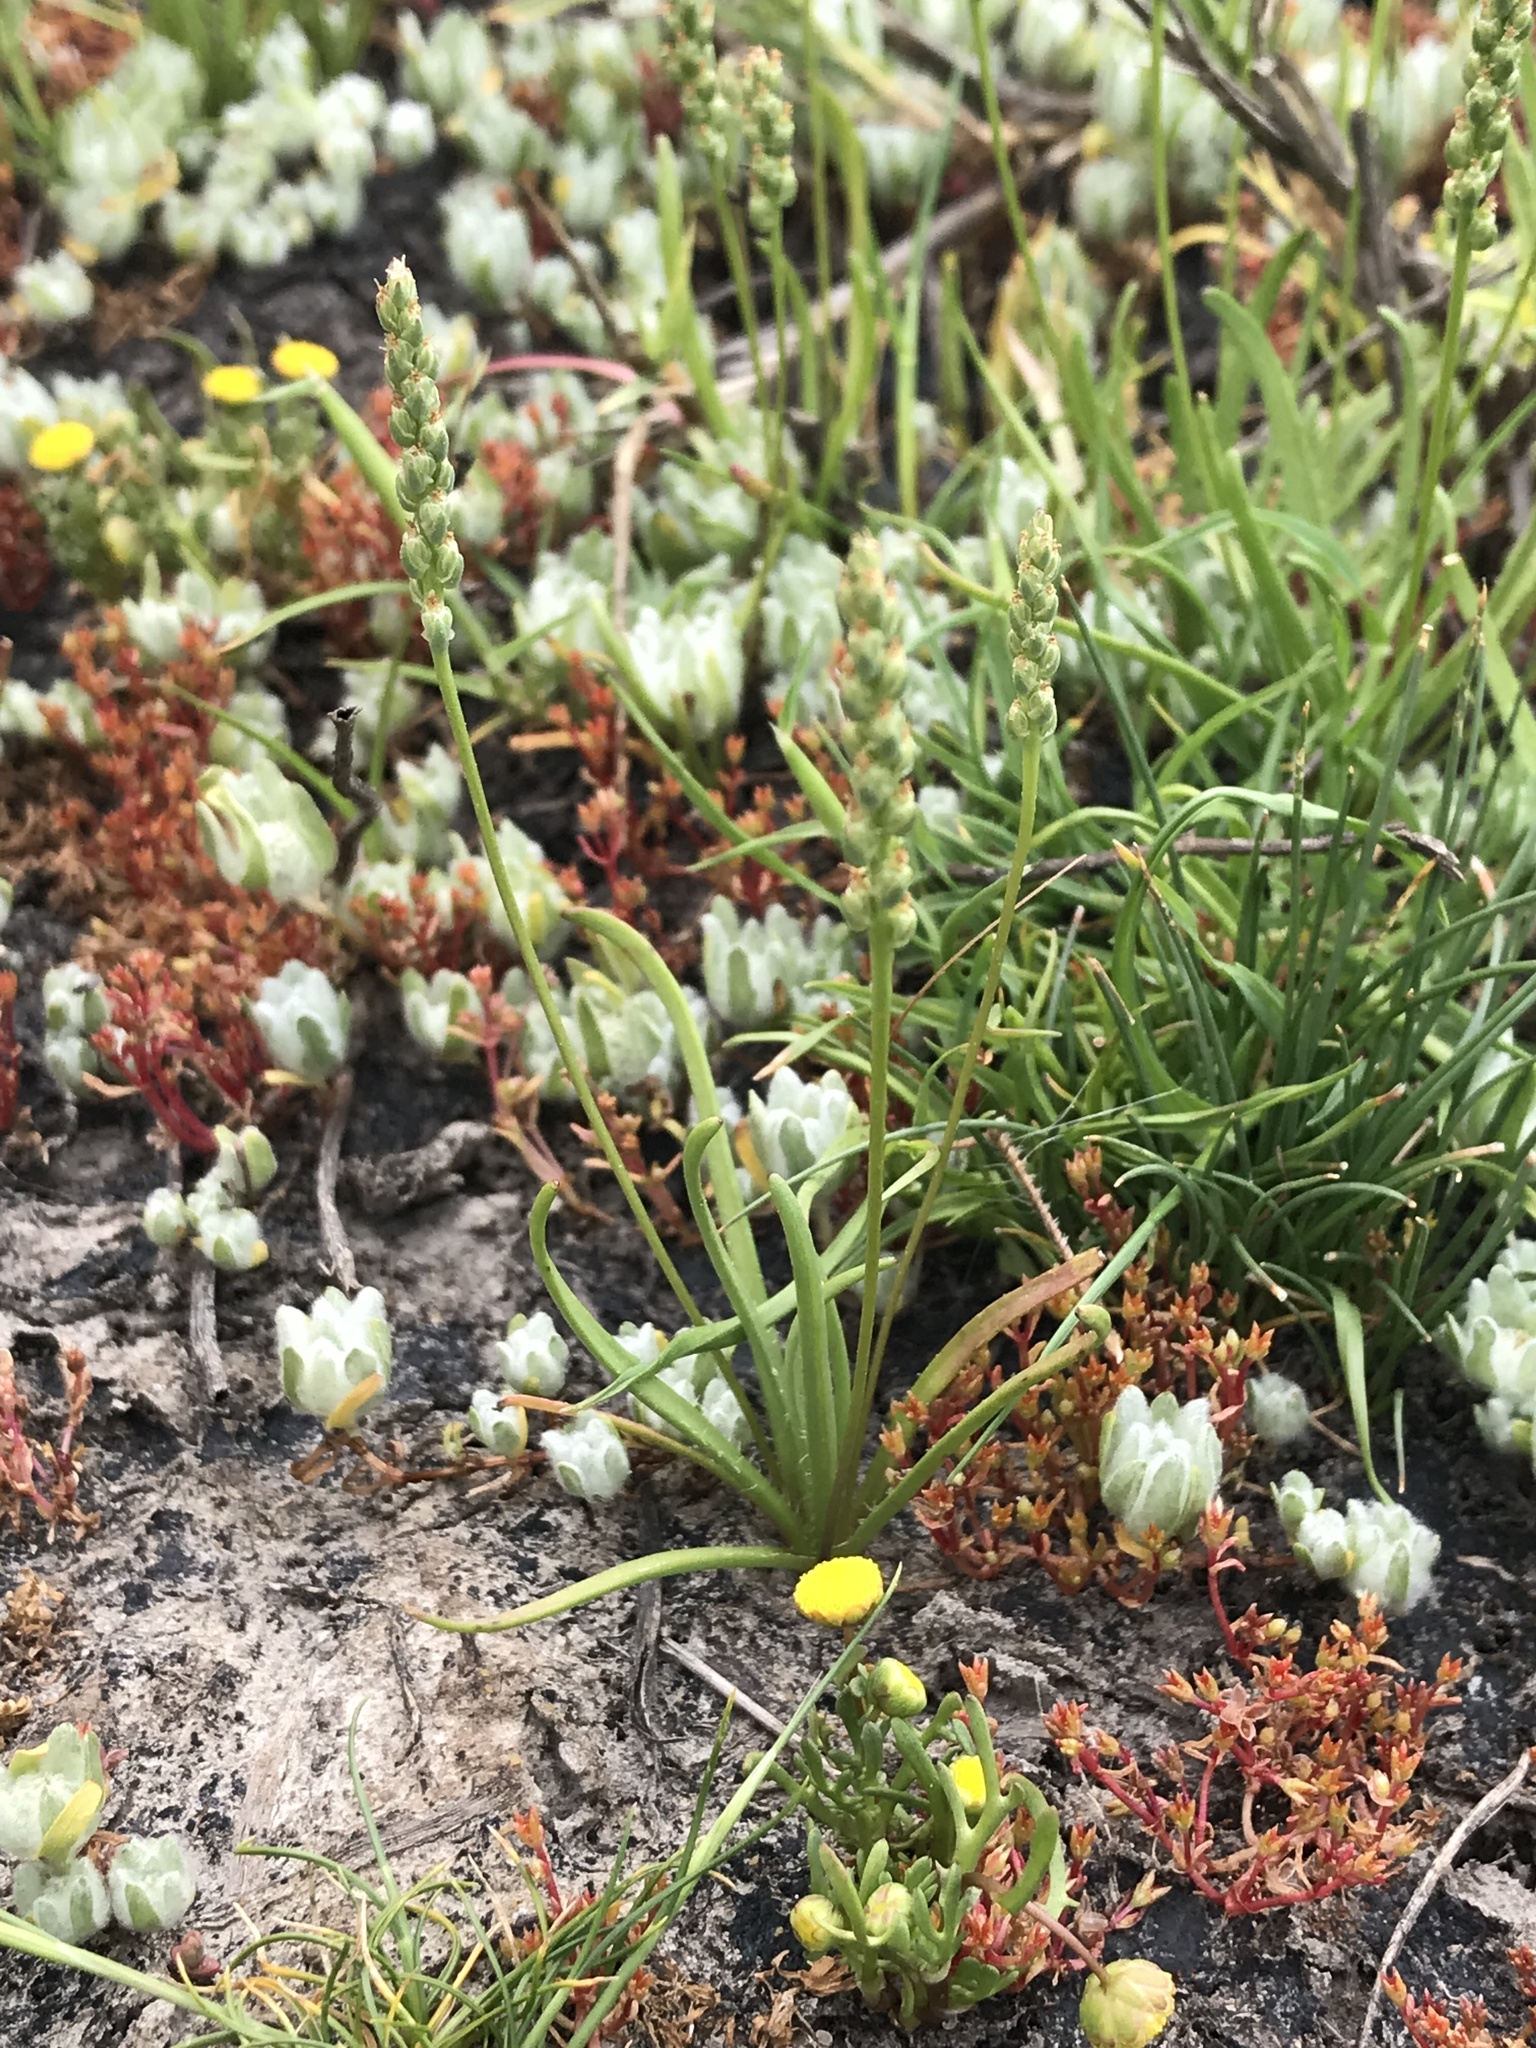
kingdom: Plantae
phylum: Tracheophyta
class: Magnoliopsida
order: Lamiales
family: Plantaginaceae
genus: Plantago
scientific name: Plantago erecta
